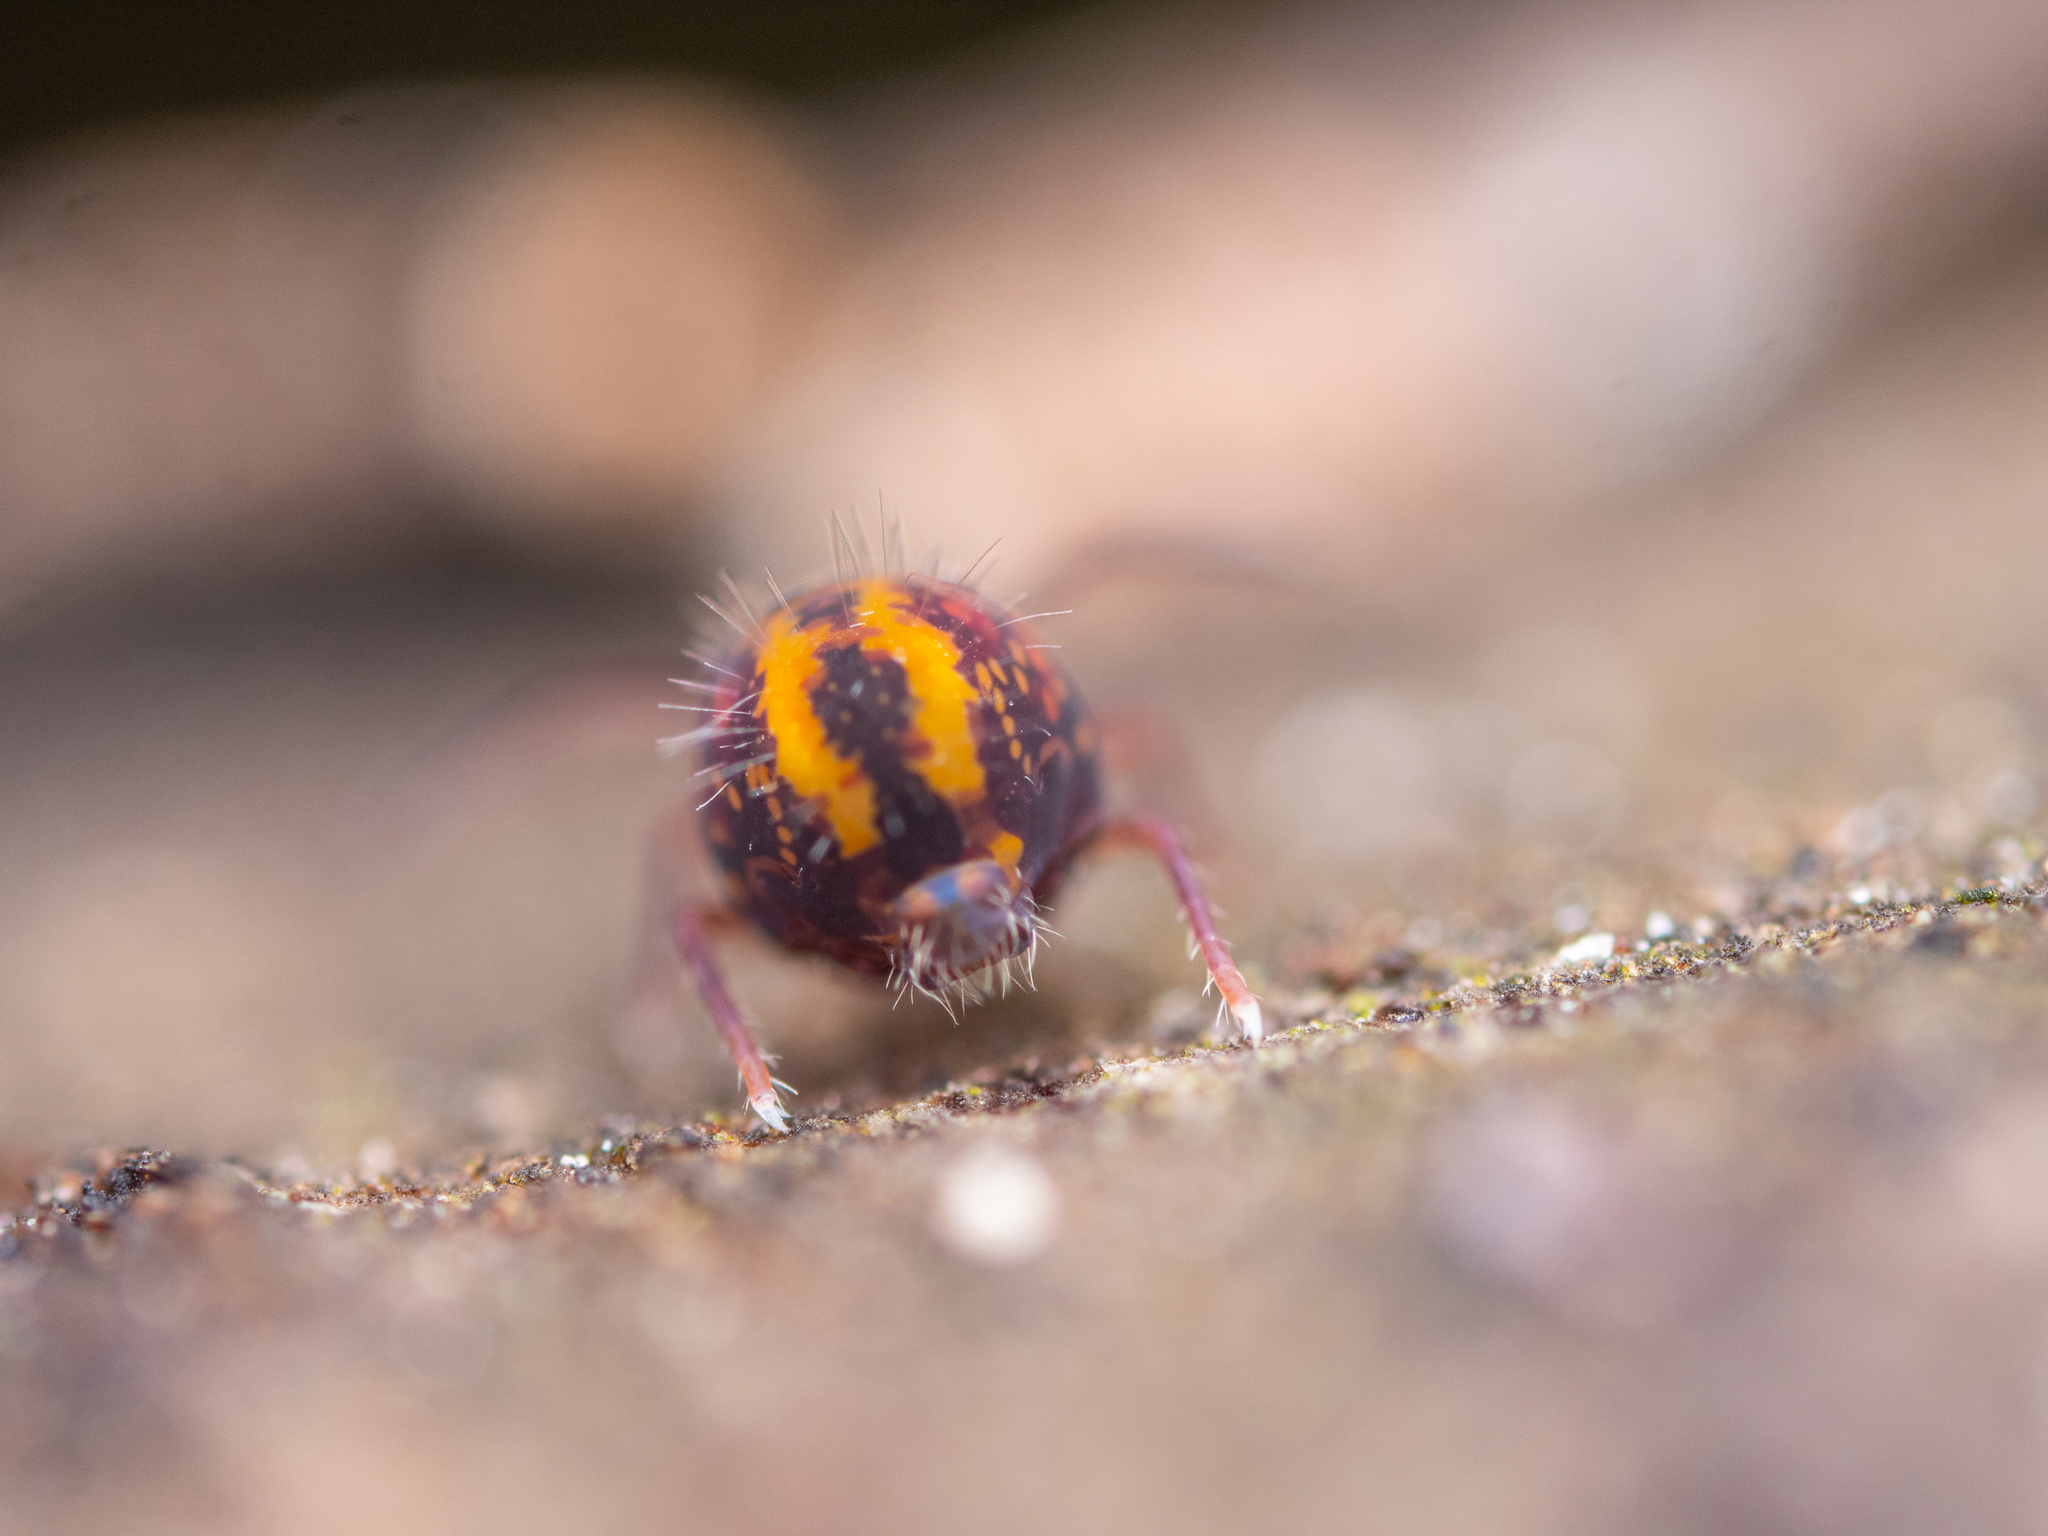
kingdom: Animalia
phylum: Arthropoda
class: Collembola
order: Symphypleona
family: Dicyrtomidae
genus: Dicyrtomina
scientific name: Dicyrtomina ornata
